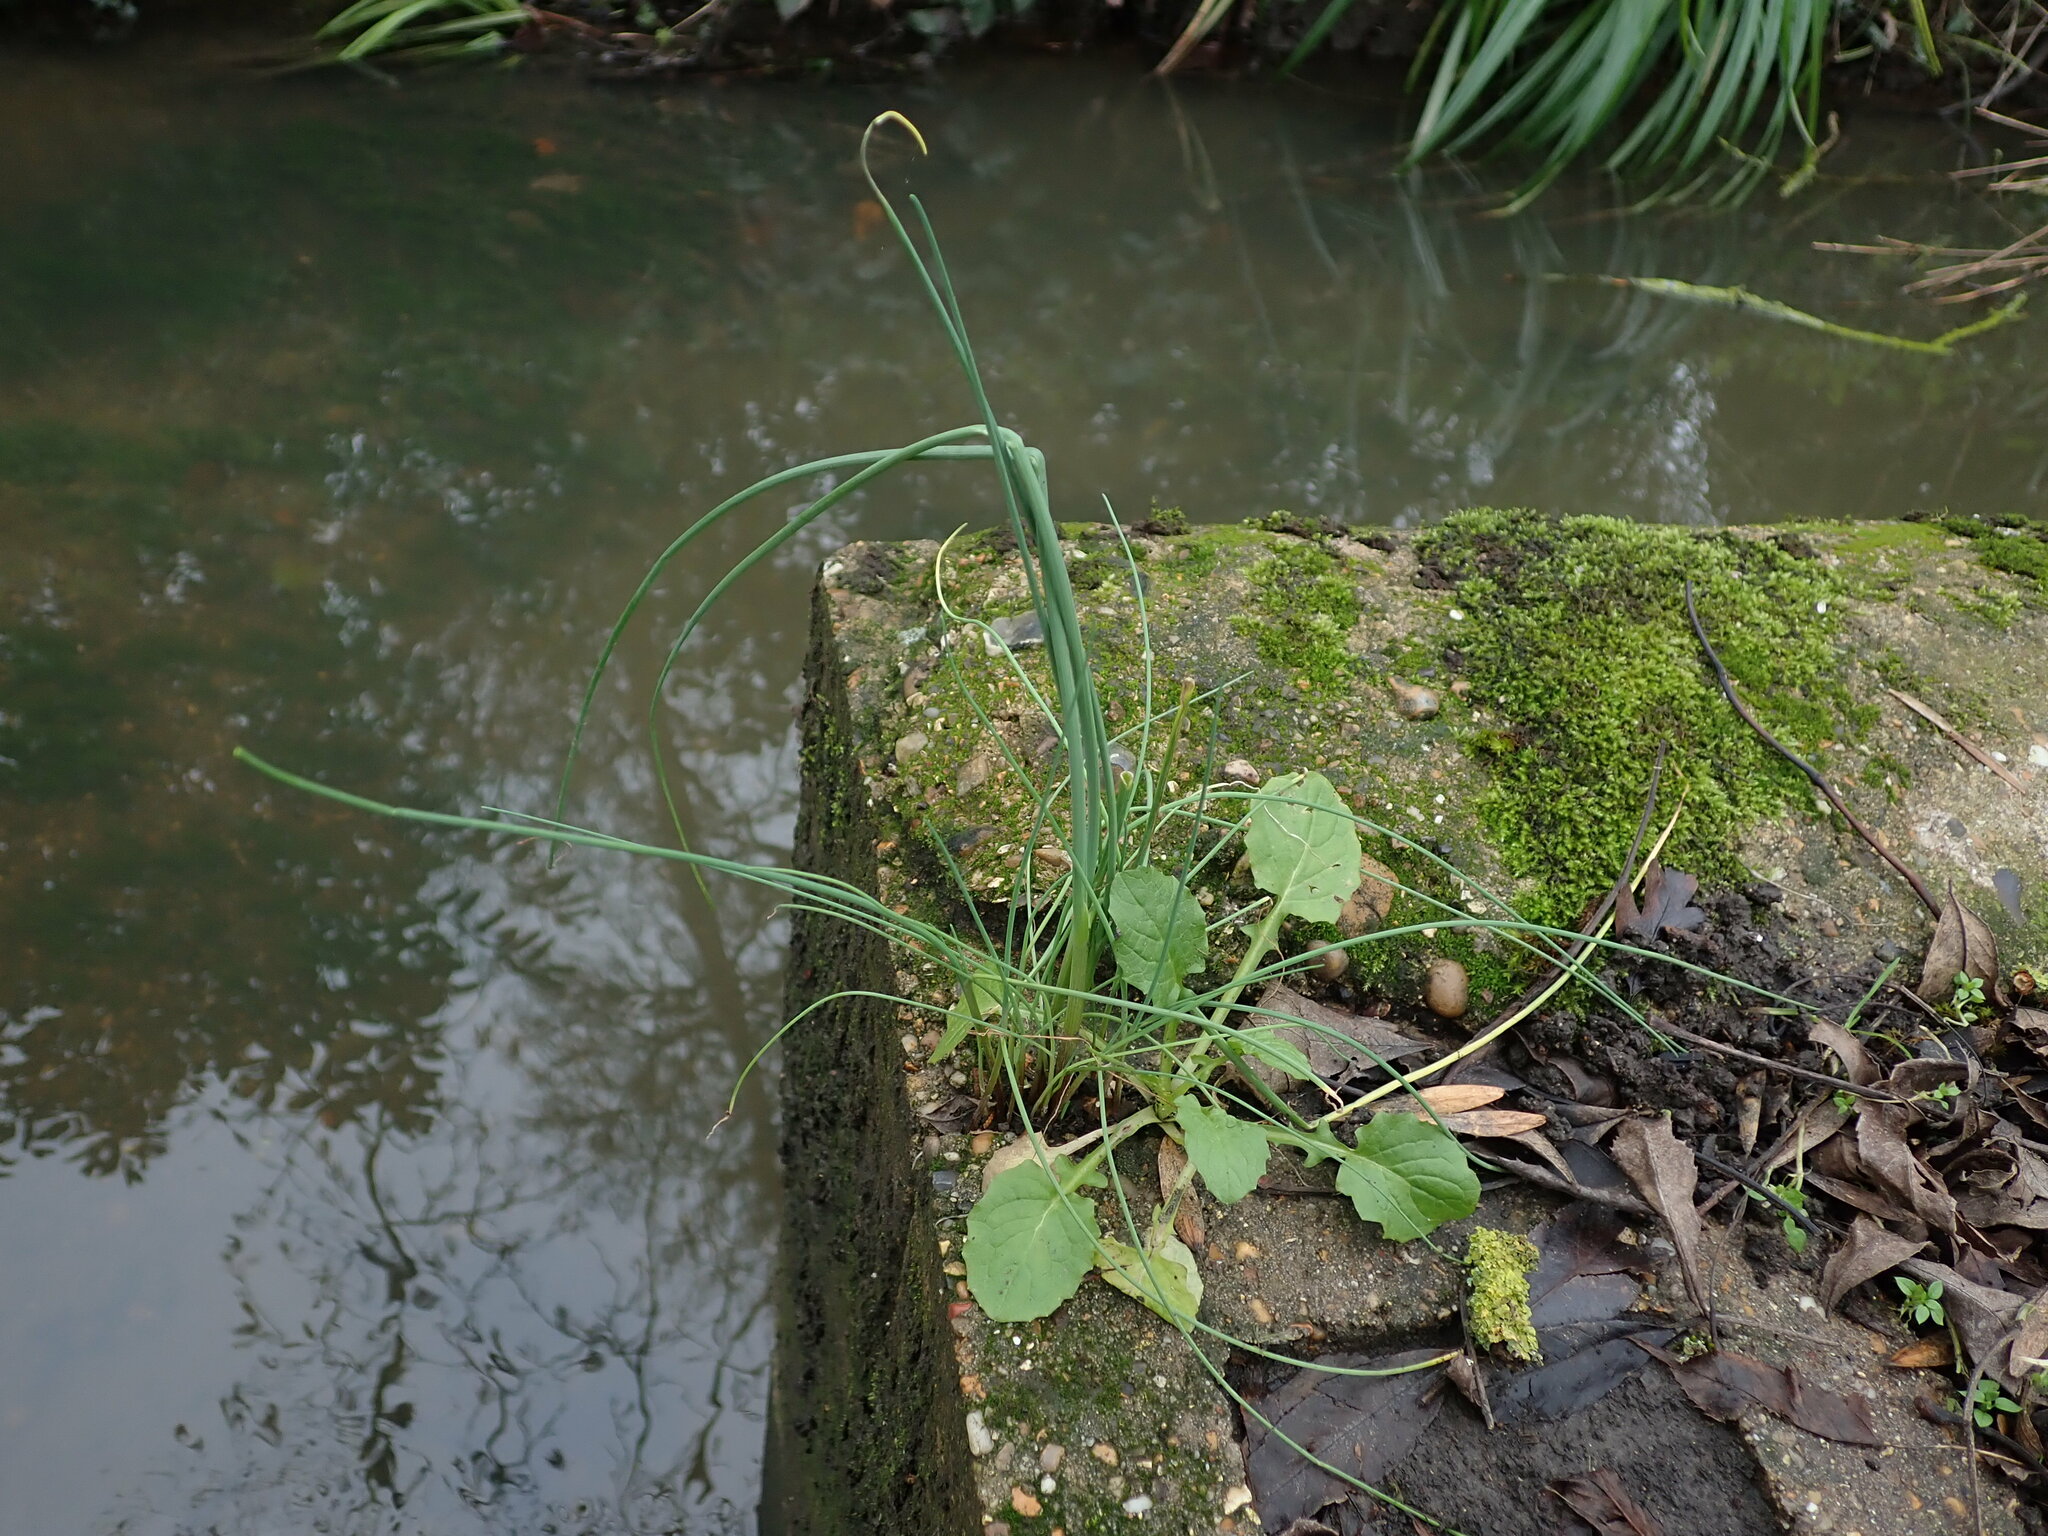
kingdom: Plantae
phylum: Tracheophyta
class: Liliopsida
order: Asparagales
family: Amaryllidaceae
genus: Allium
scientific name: Allium vineale
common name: Crow garlic
